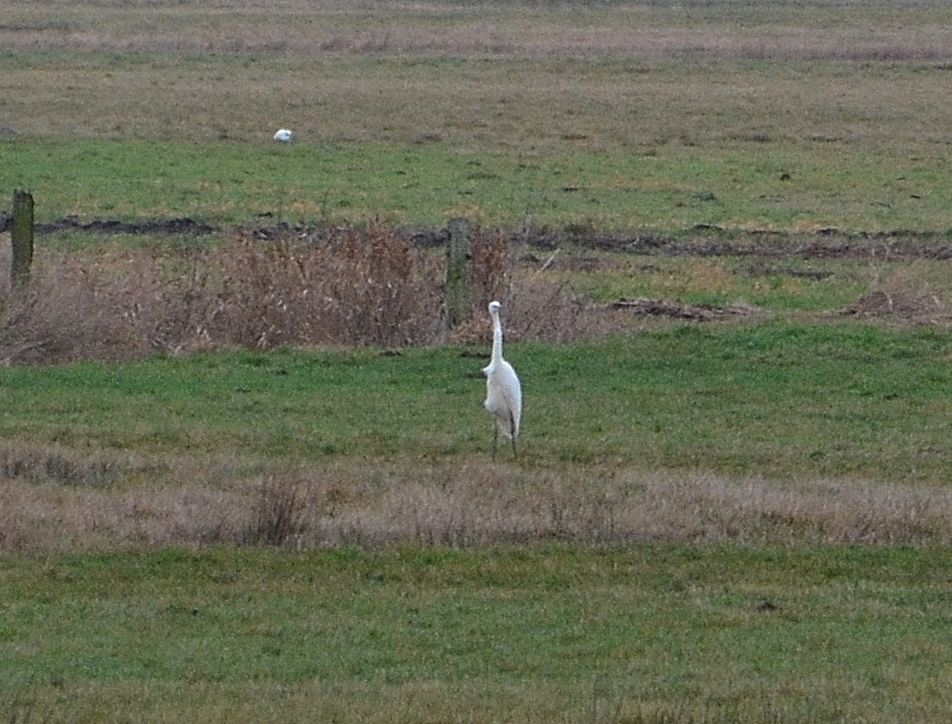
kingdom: Animalia
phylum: Chordata
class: Aves
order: Pelecaniformes
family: Ardeidae
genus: Ardea
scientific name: Ardea alba
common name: Great egret
